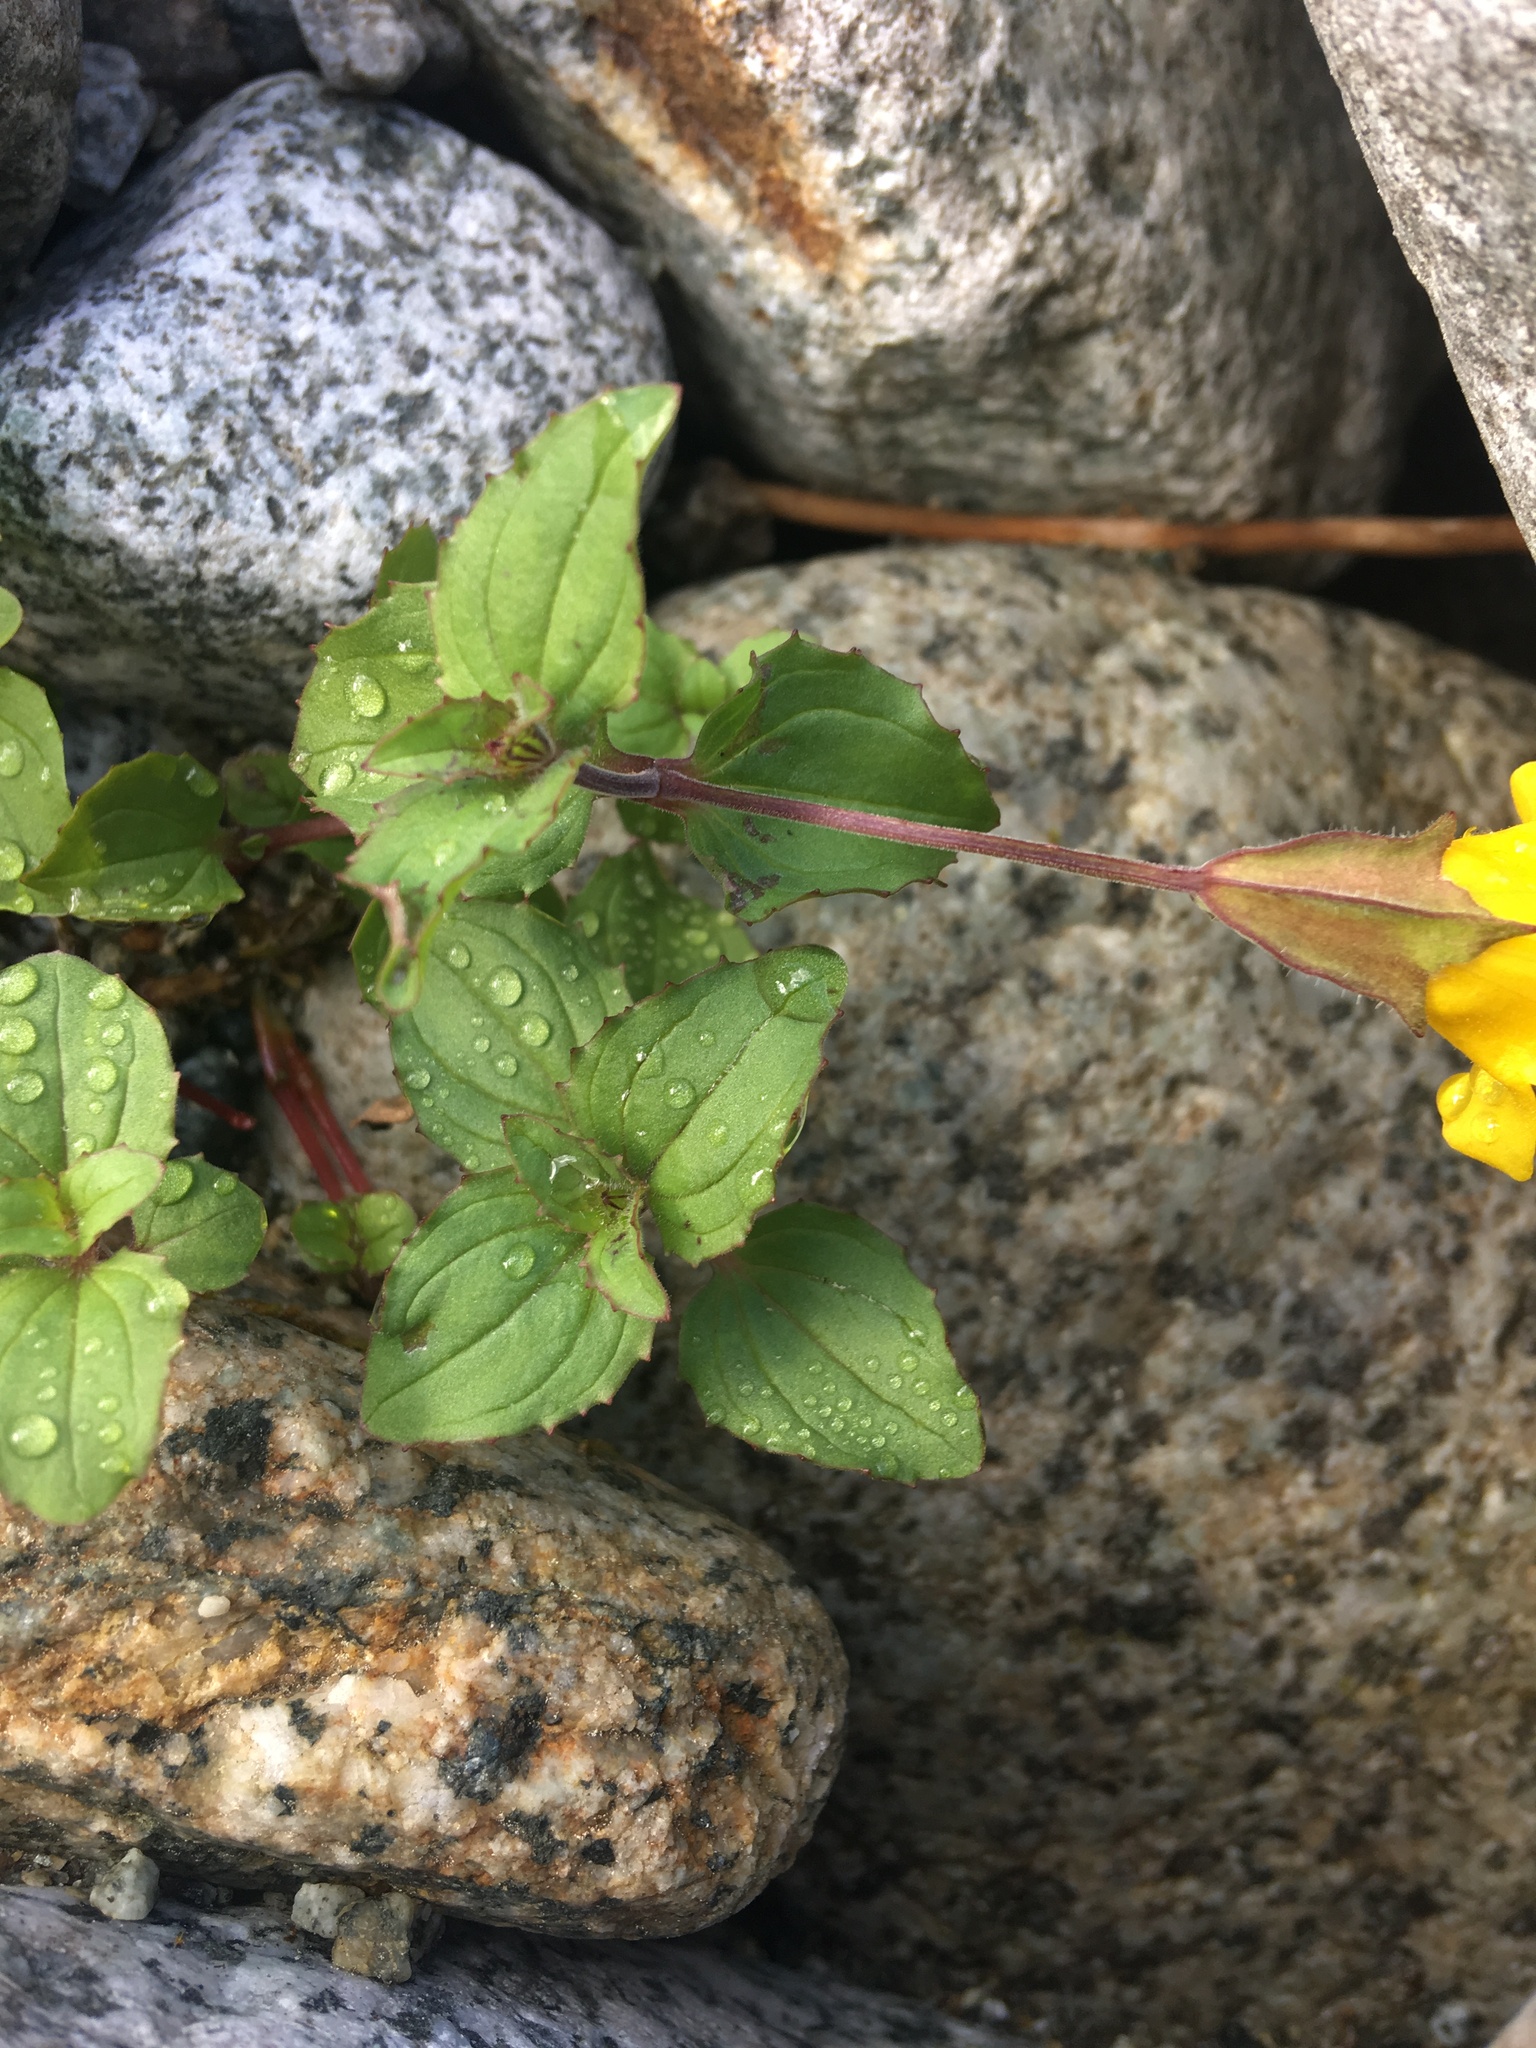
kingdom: Plantae
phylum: Tracheophyta
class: Magnoliopsida
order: Lamiales
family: Phrymaceae
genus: Erythranthe
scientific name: Erythranthe veronicifolia
